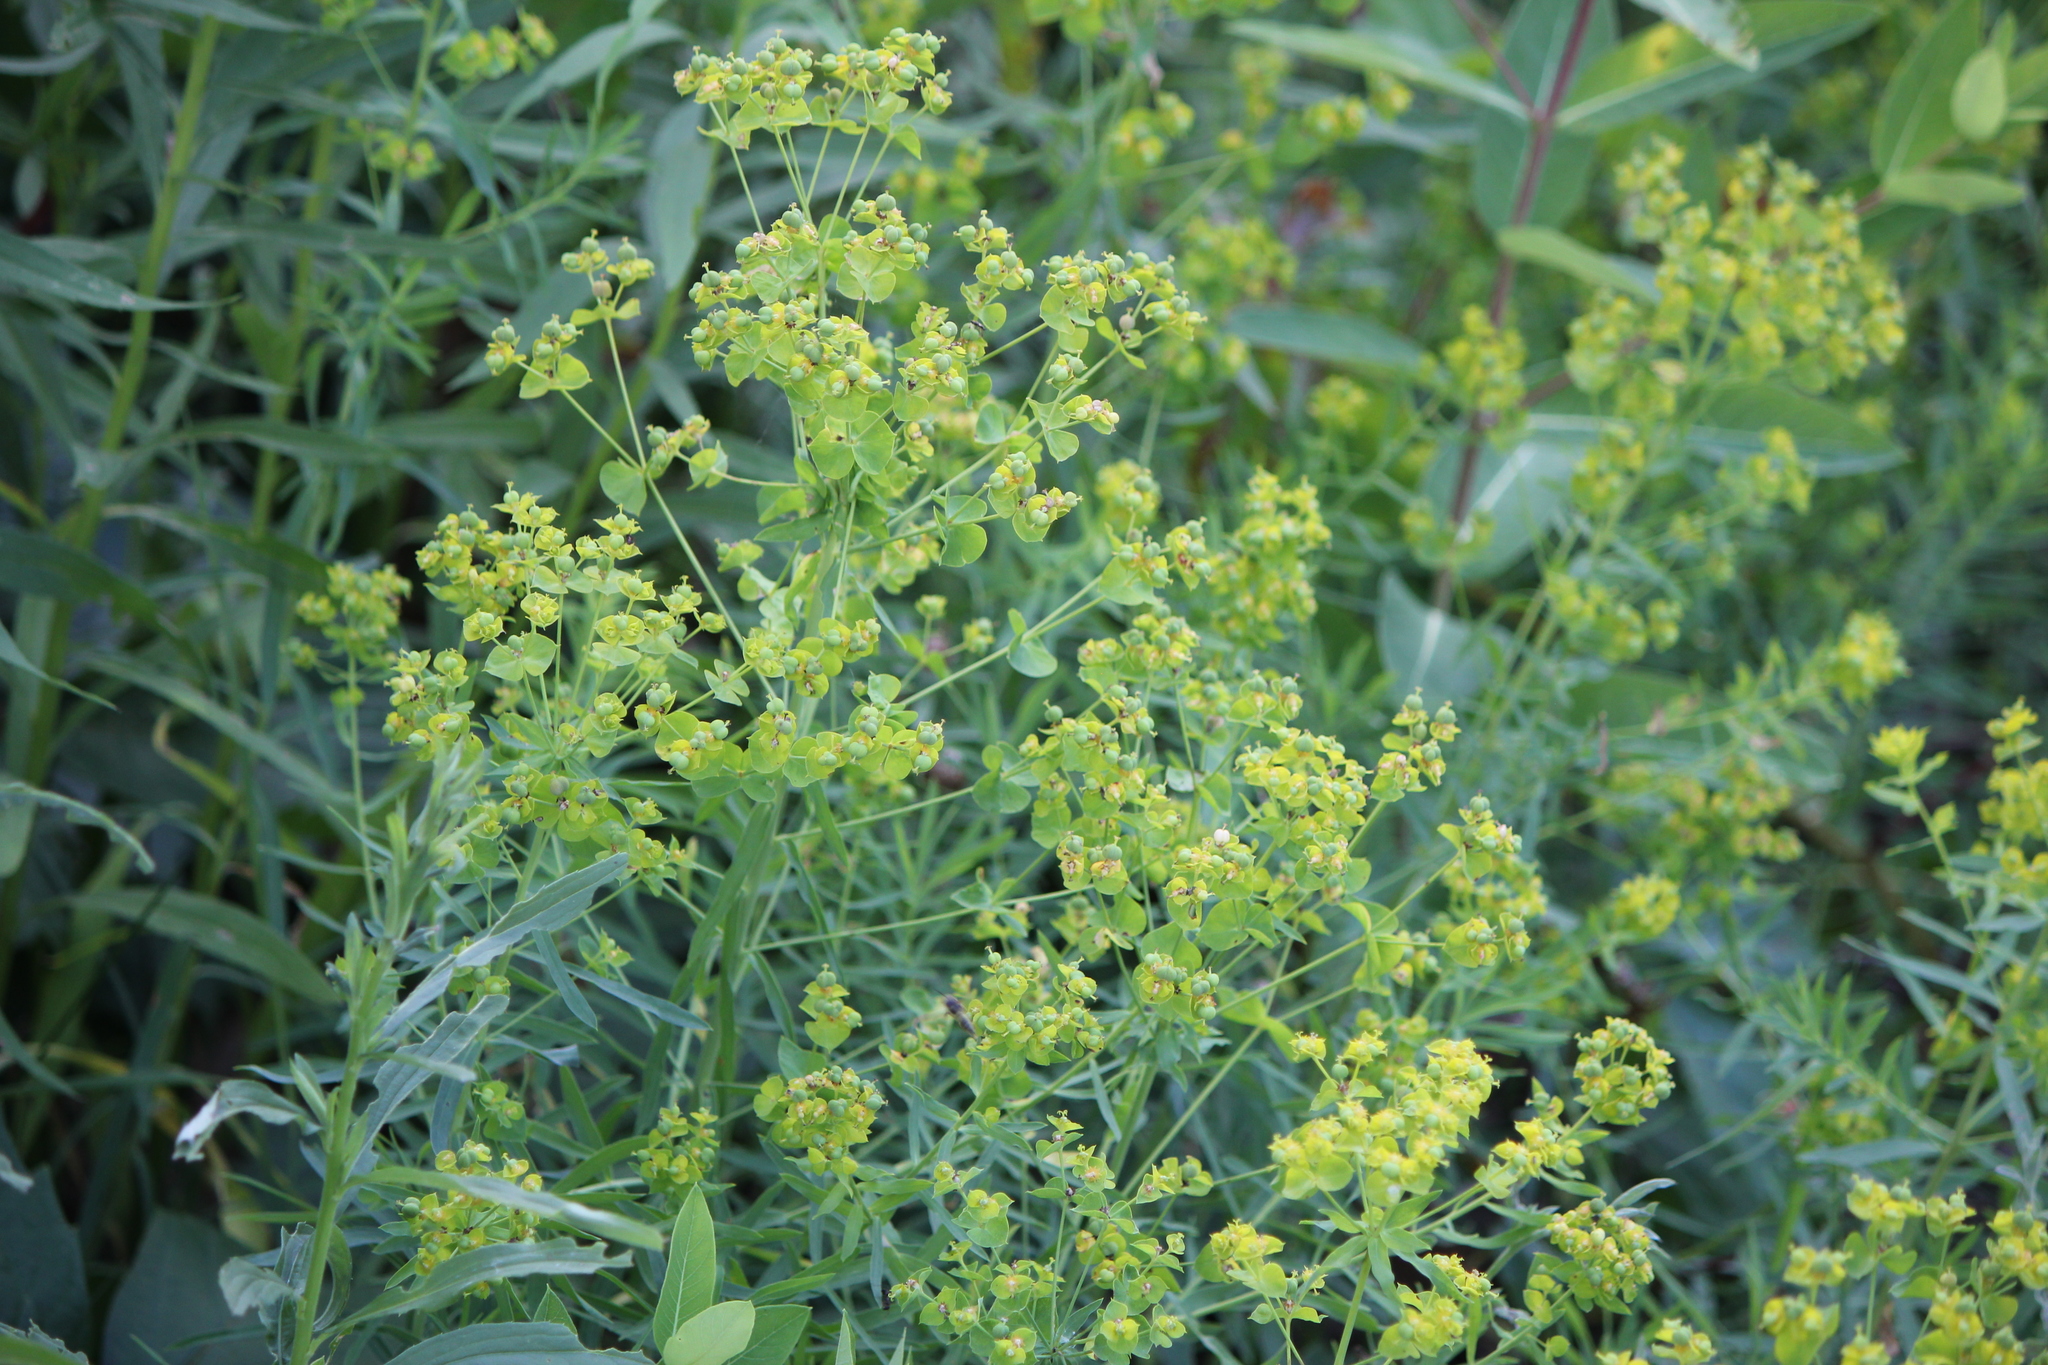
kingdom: Plantae
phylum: Tracheophyta
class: Magnoliopsida
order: Malpighiales
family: Euphorbiaceae
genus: Euphorbia
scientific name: Euphorbia virgata
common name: Leafy spurge
